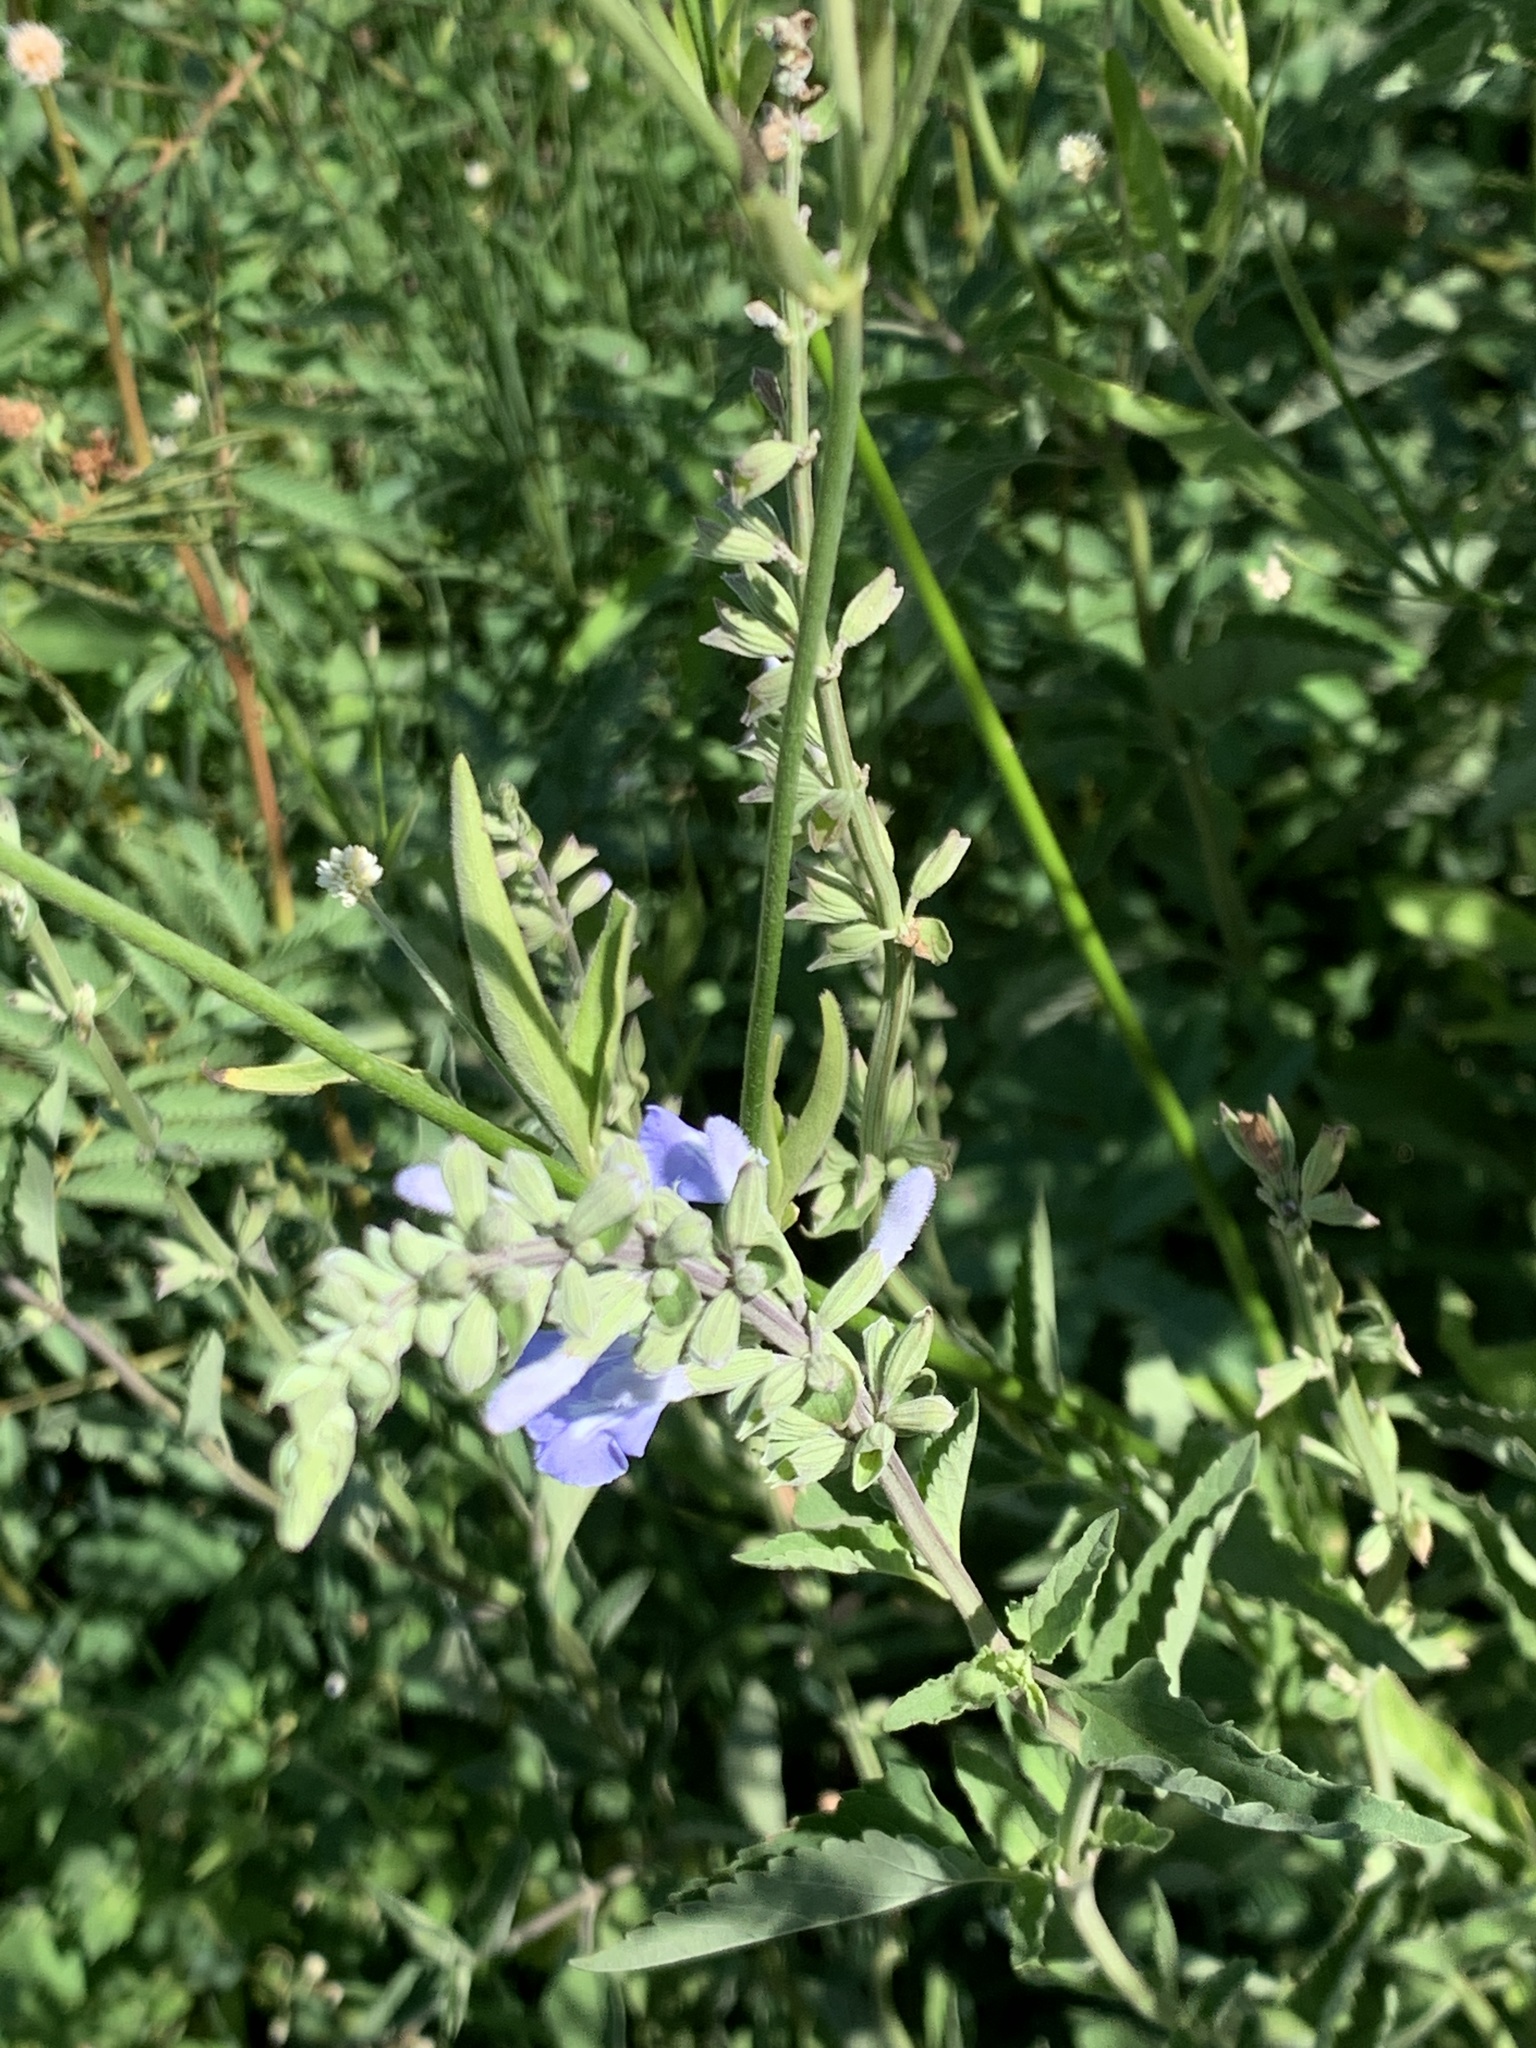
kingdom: Plantae
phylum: Tracheophyta
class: Magnoliopsida
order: Lamiales
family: Lamiaceae
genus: Salvia
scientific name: Salvia pallida
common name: Pale sage
